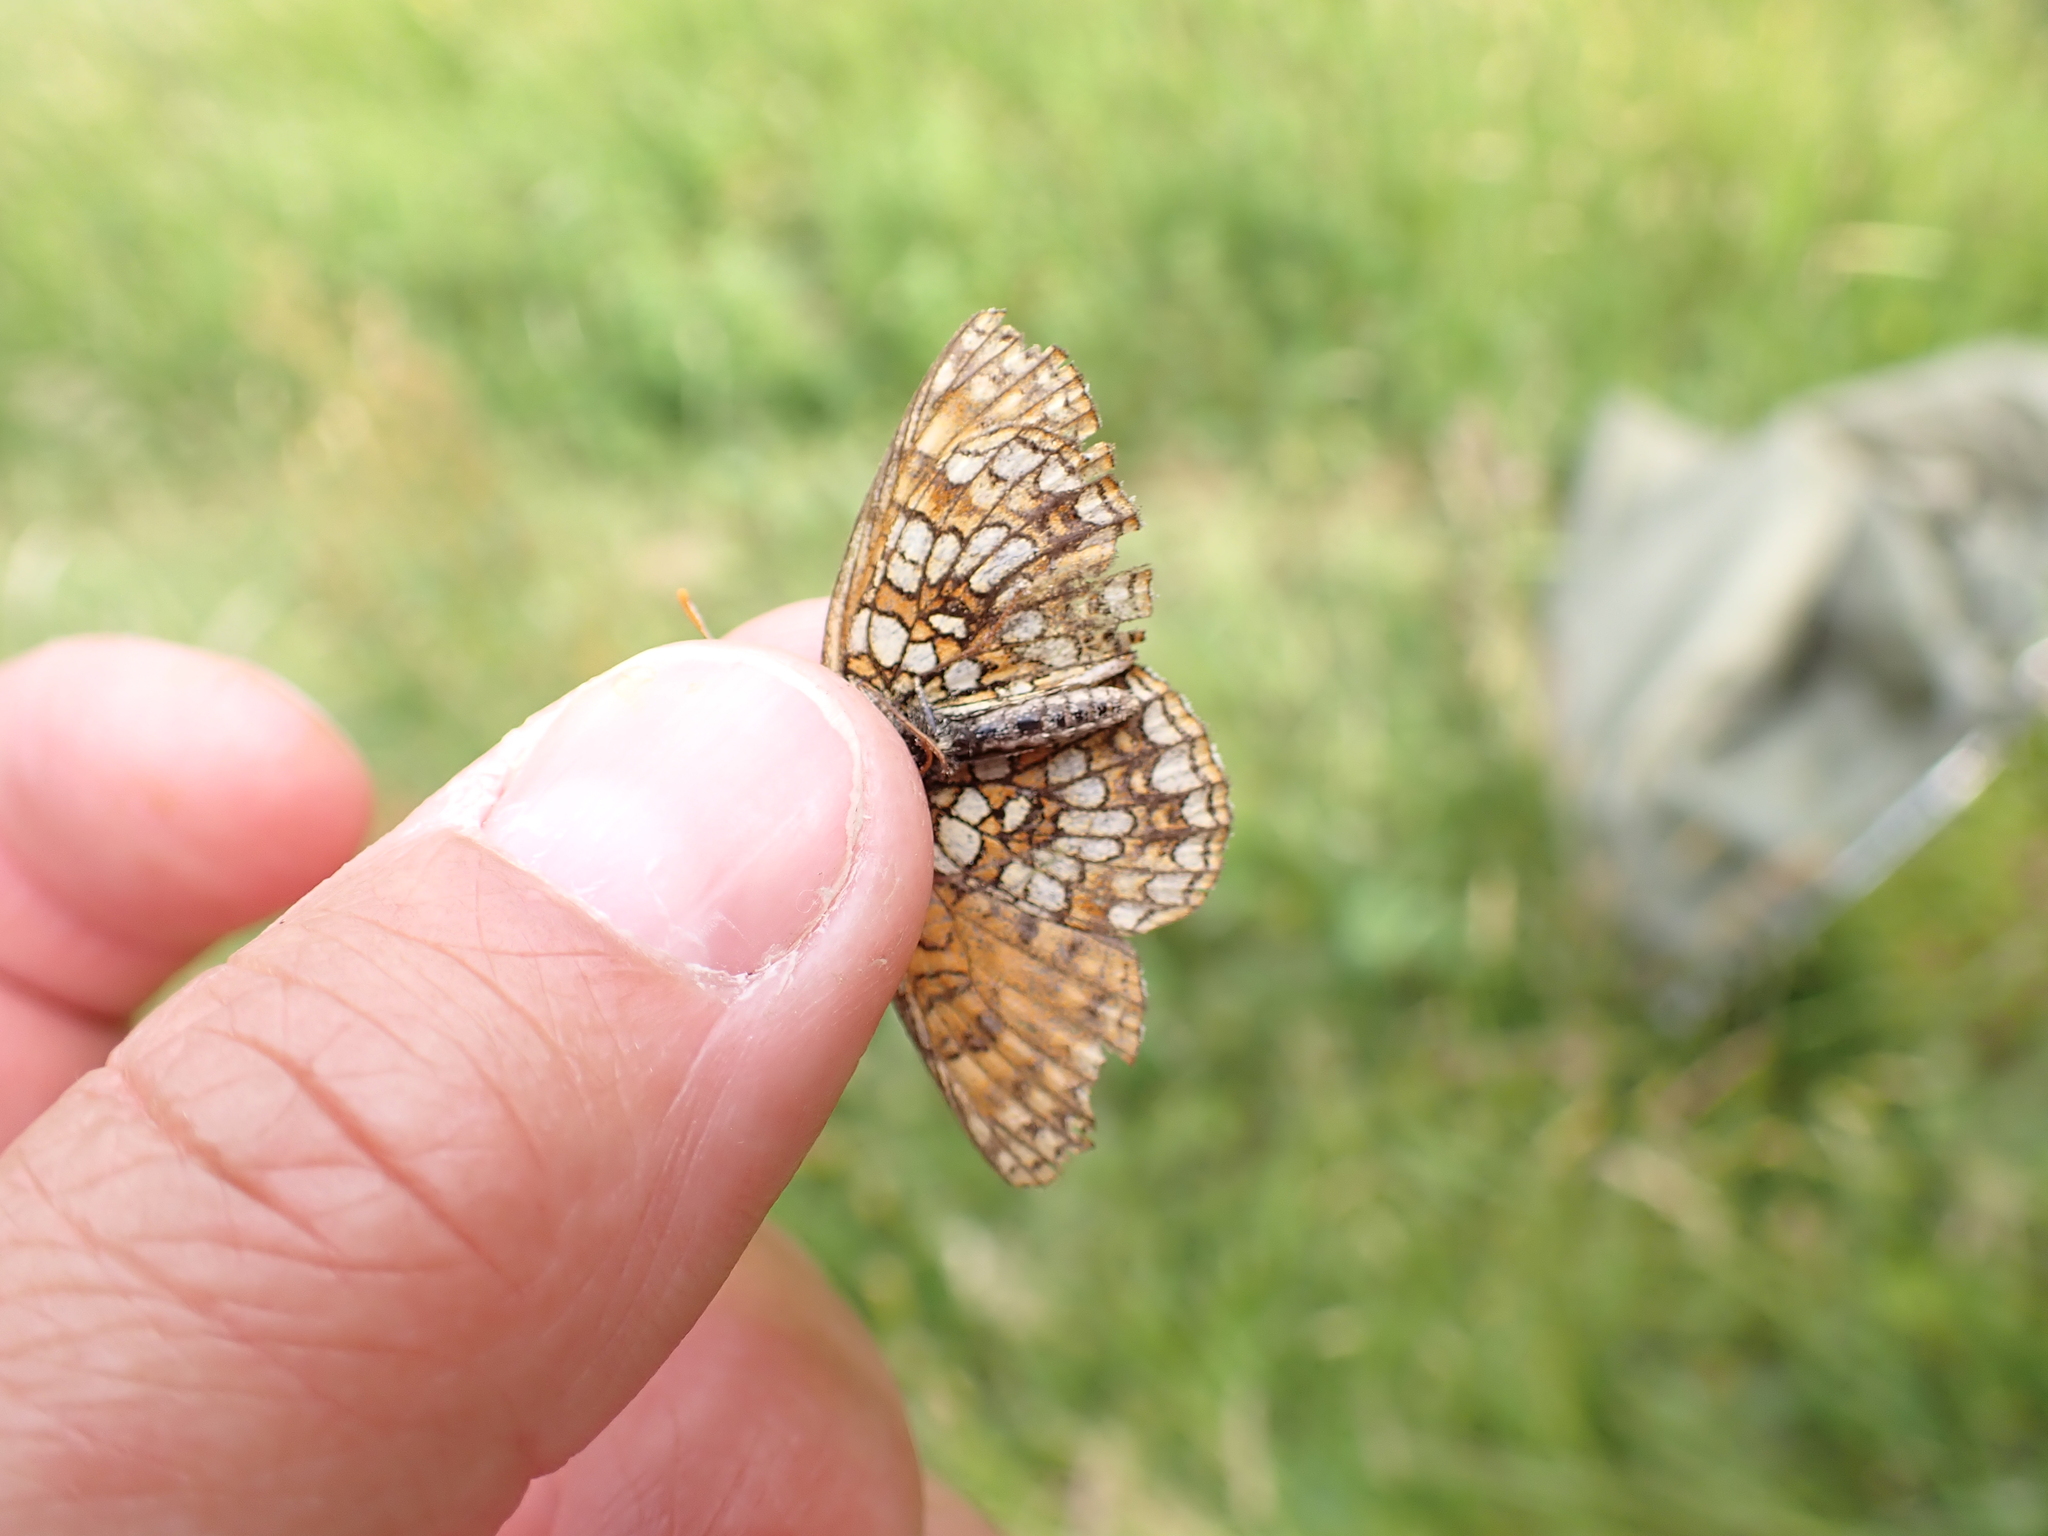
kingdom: Animalia
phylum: Arthropoda
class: Insecta
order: Lepidoptera
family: Nymphalidae
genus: Melitaea
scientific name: Melitaea diamina
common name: False heath fritillary
